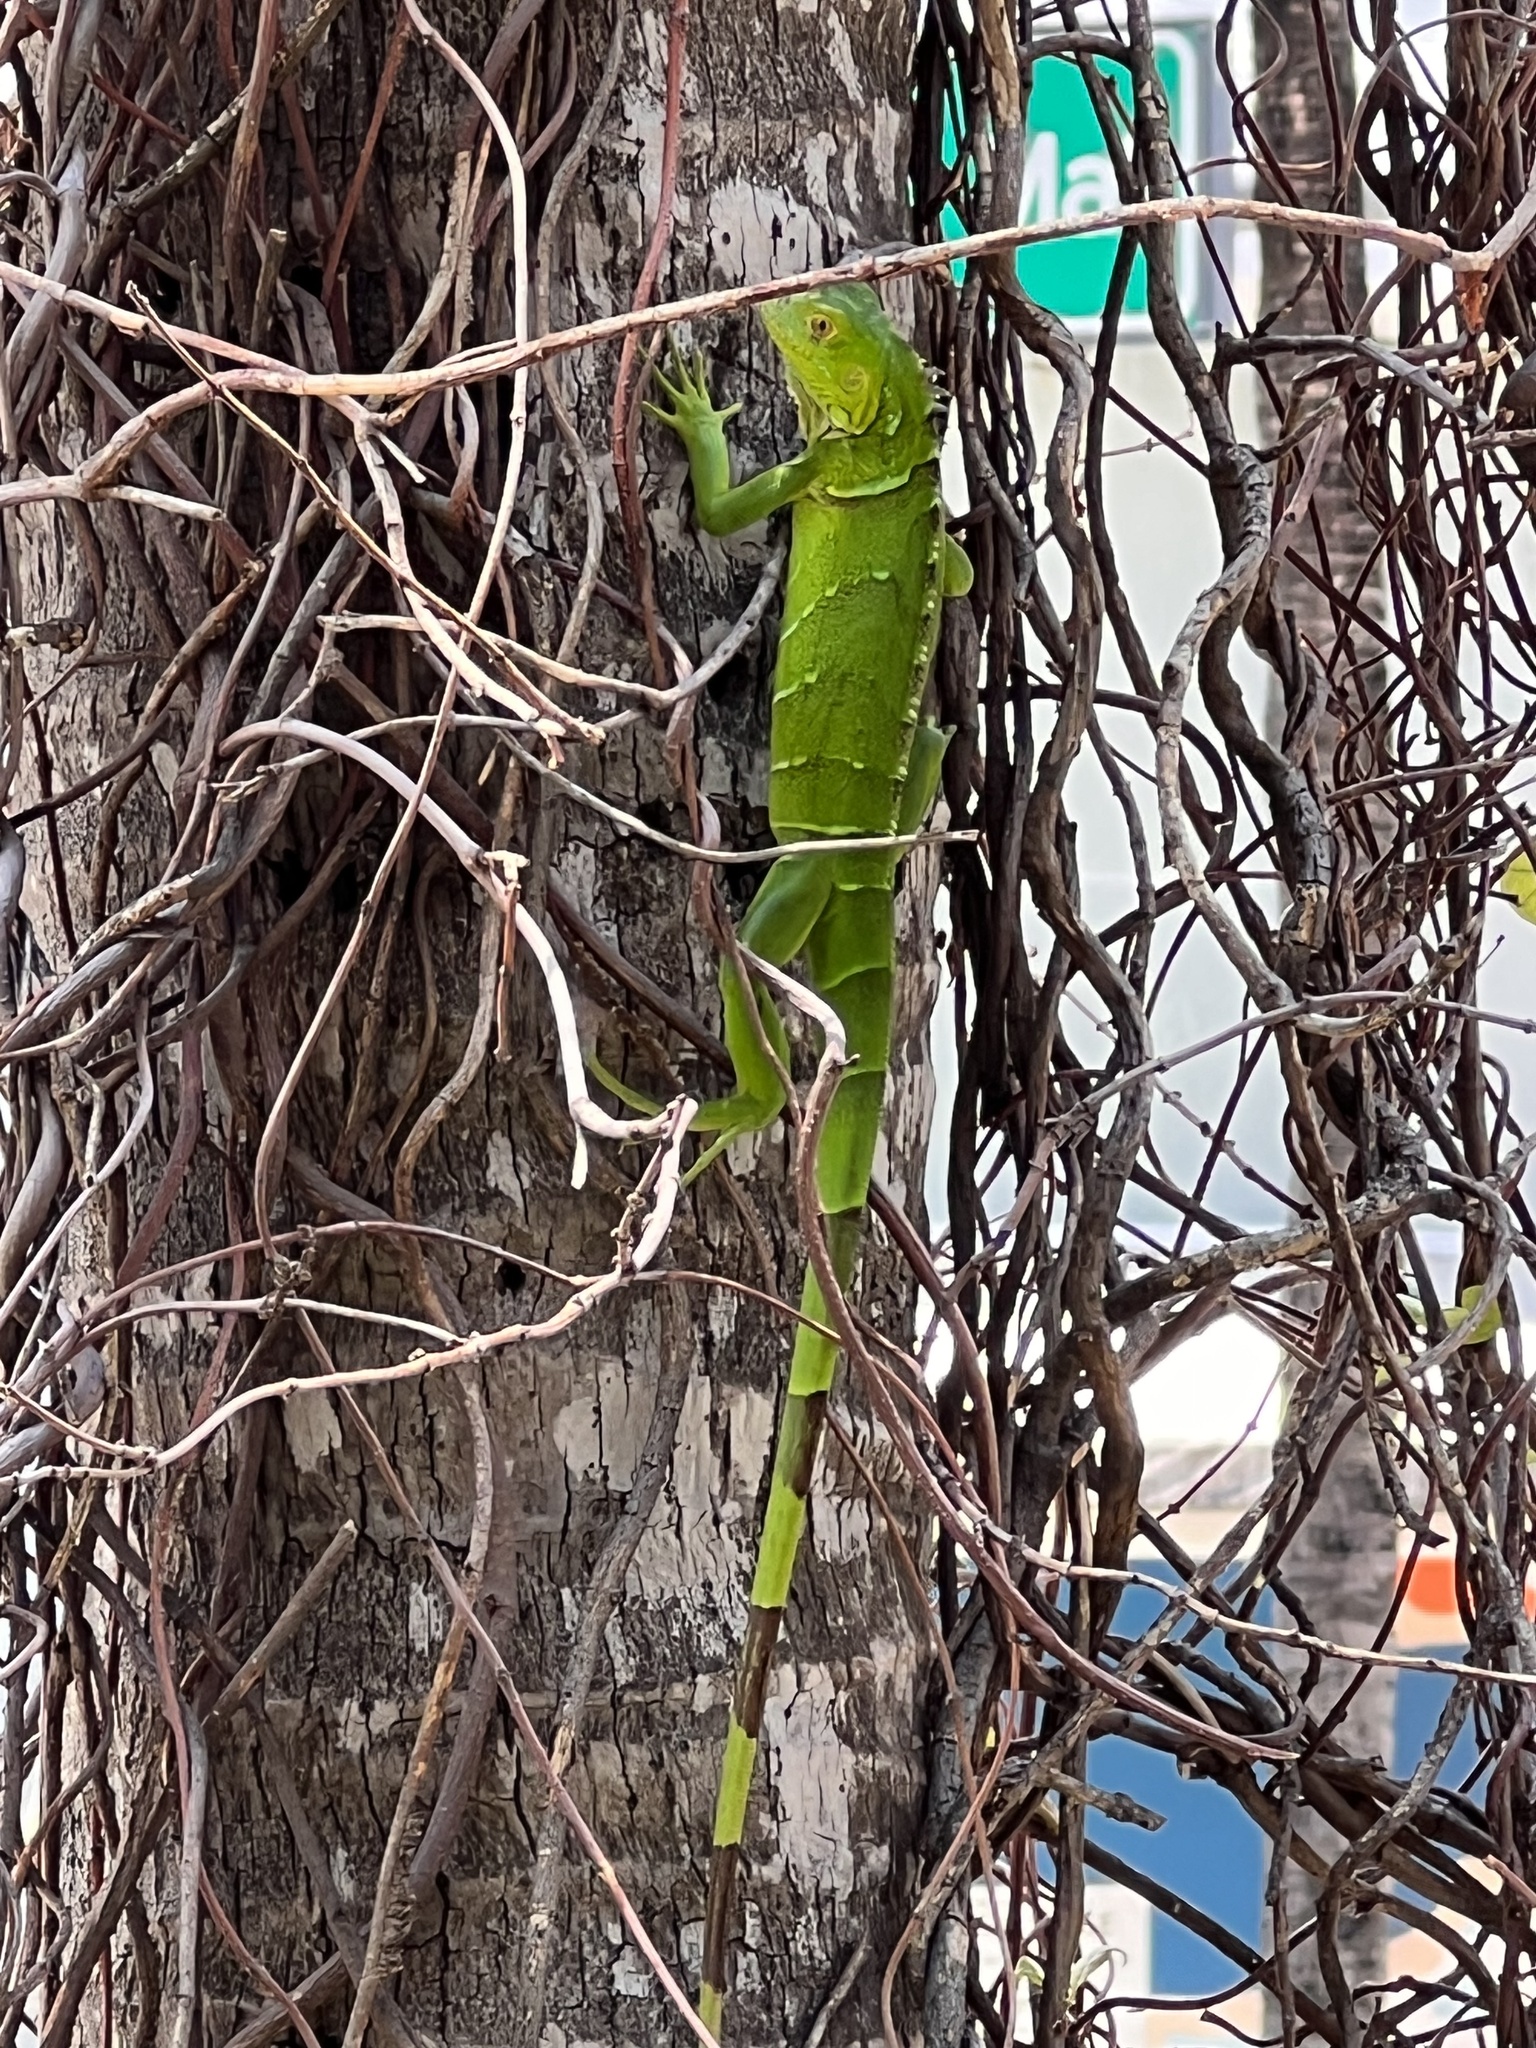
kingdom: Animalia
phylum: Chordata
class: Squamata
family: Iguanidae
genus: Iguana
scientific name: Iguana iguana
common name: Green iguana
